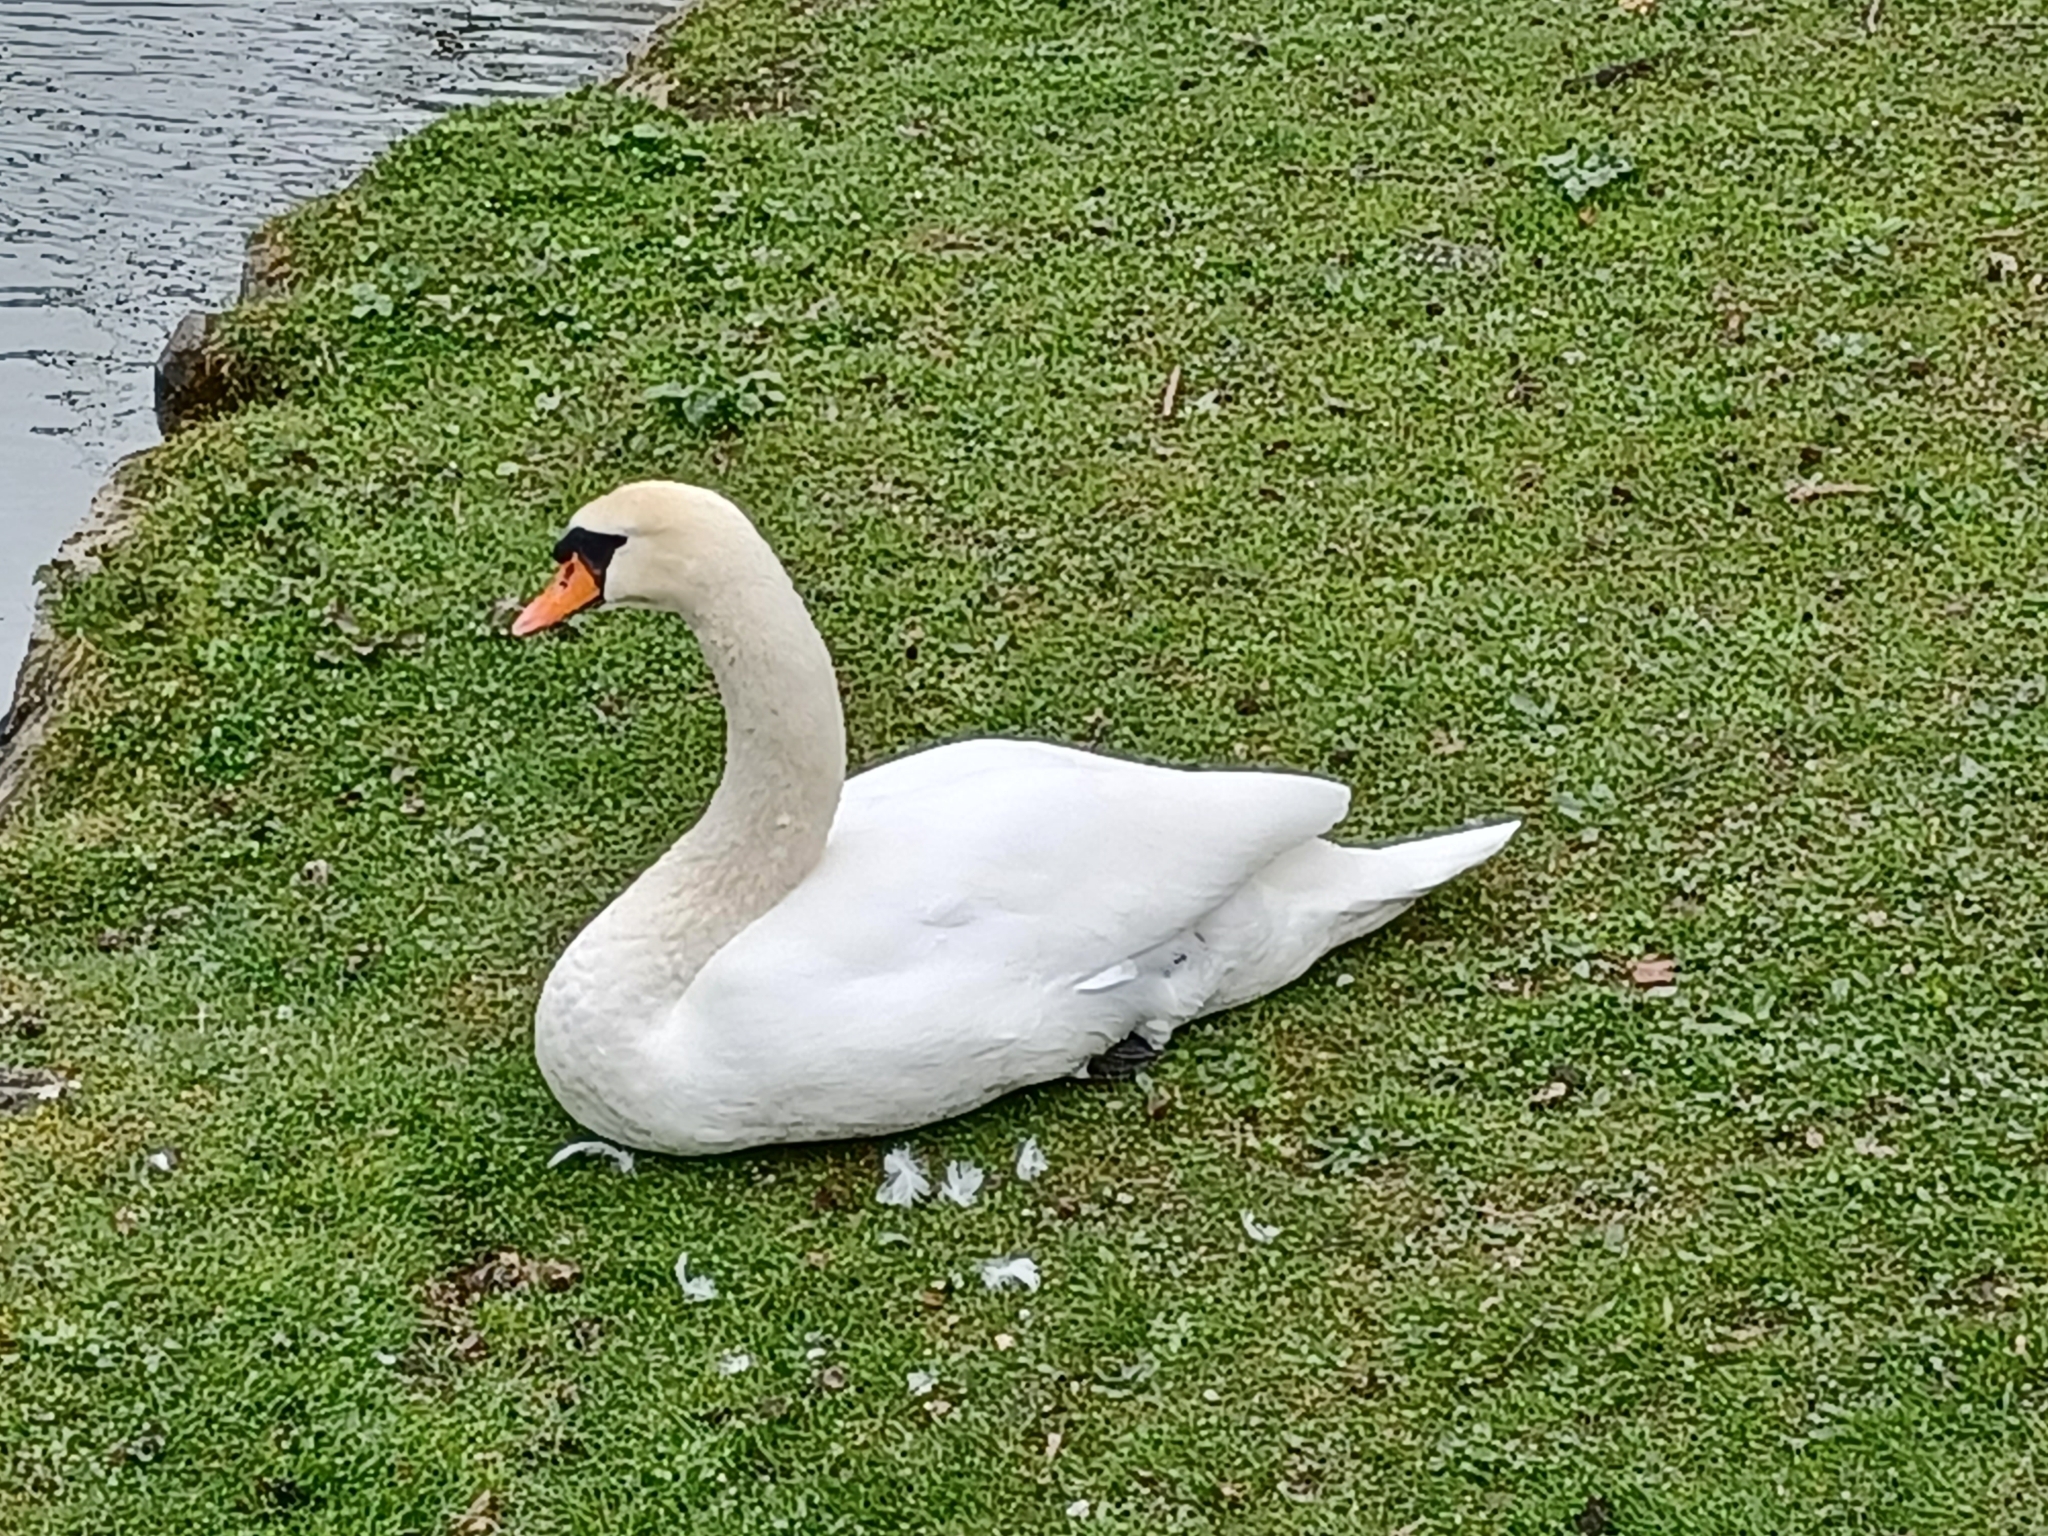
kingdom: Animalia
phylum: Chordata
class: Aves
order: Anseriformes
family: Anatidae
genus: Cygnus
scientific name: Cygnus olor
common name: Mute swan
